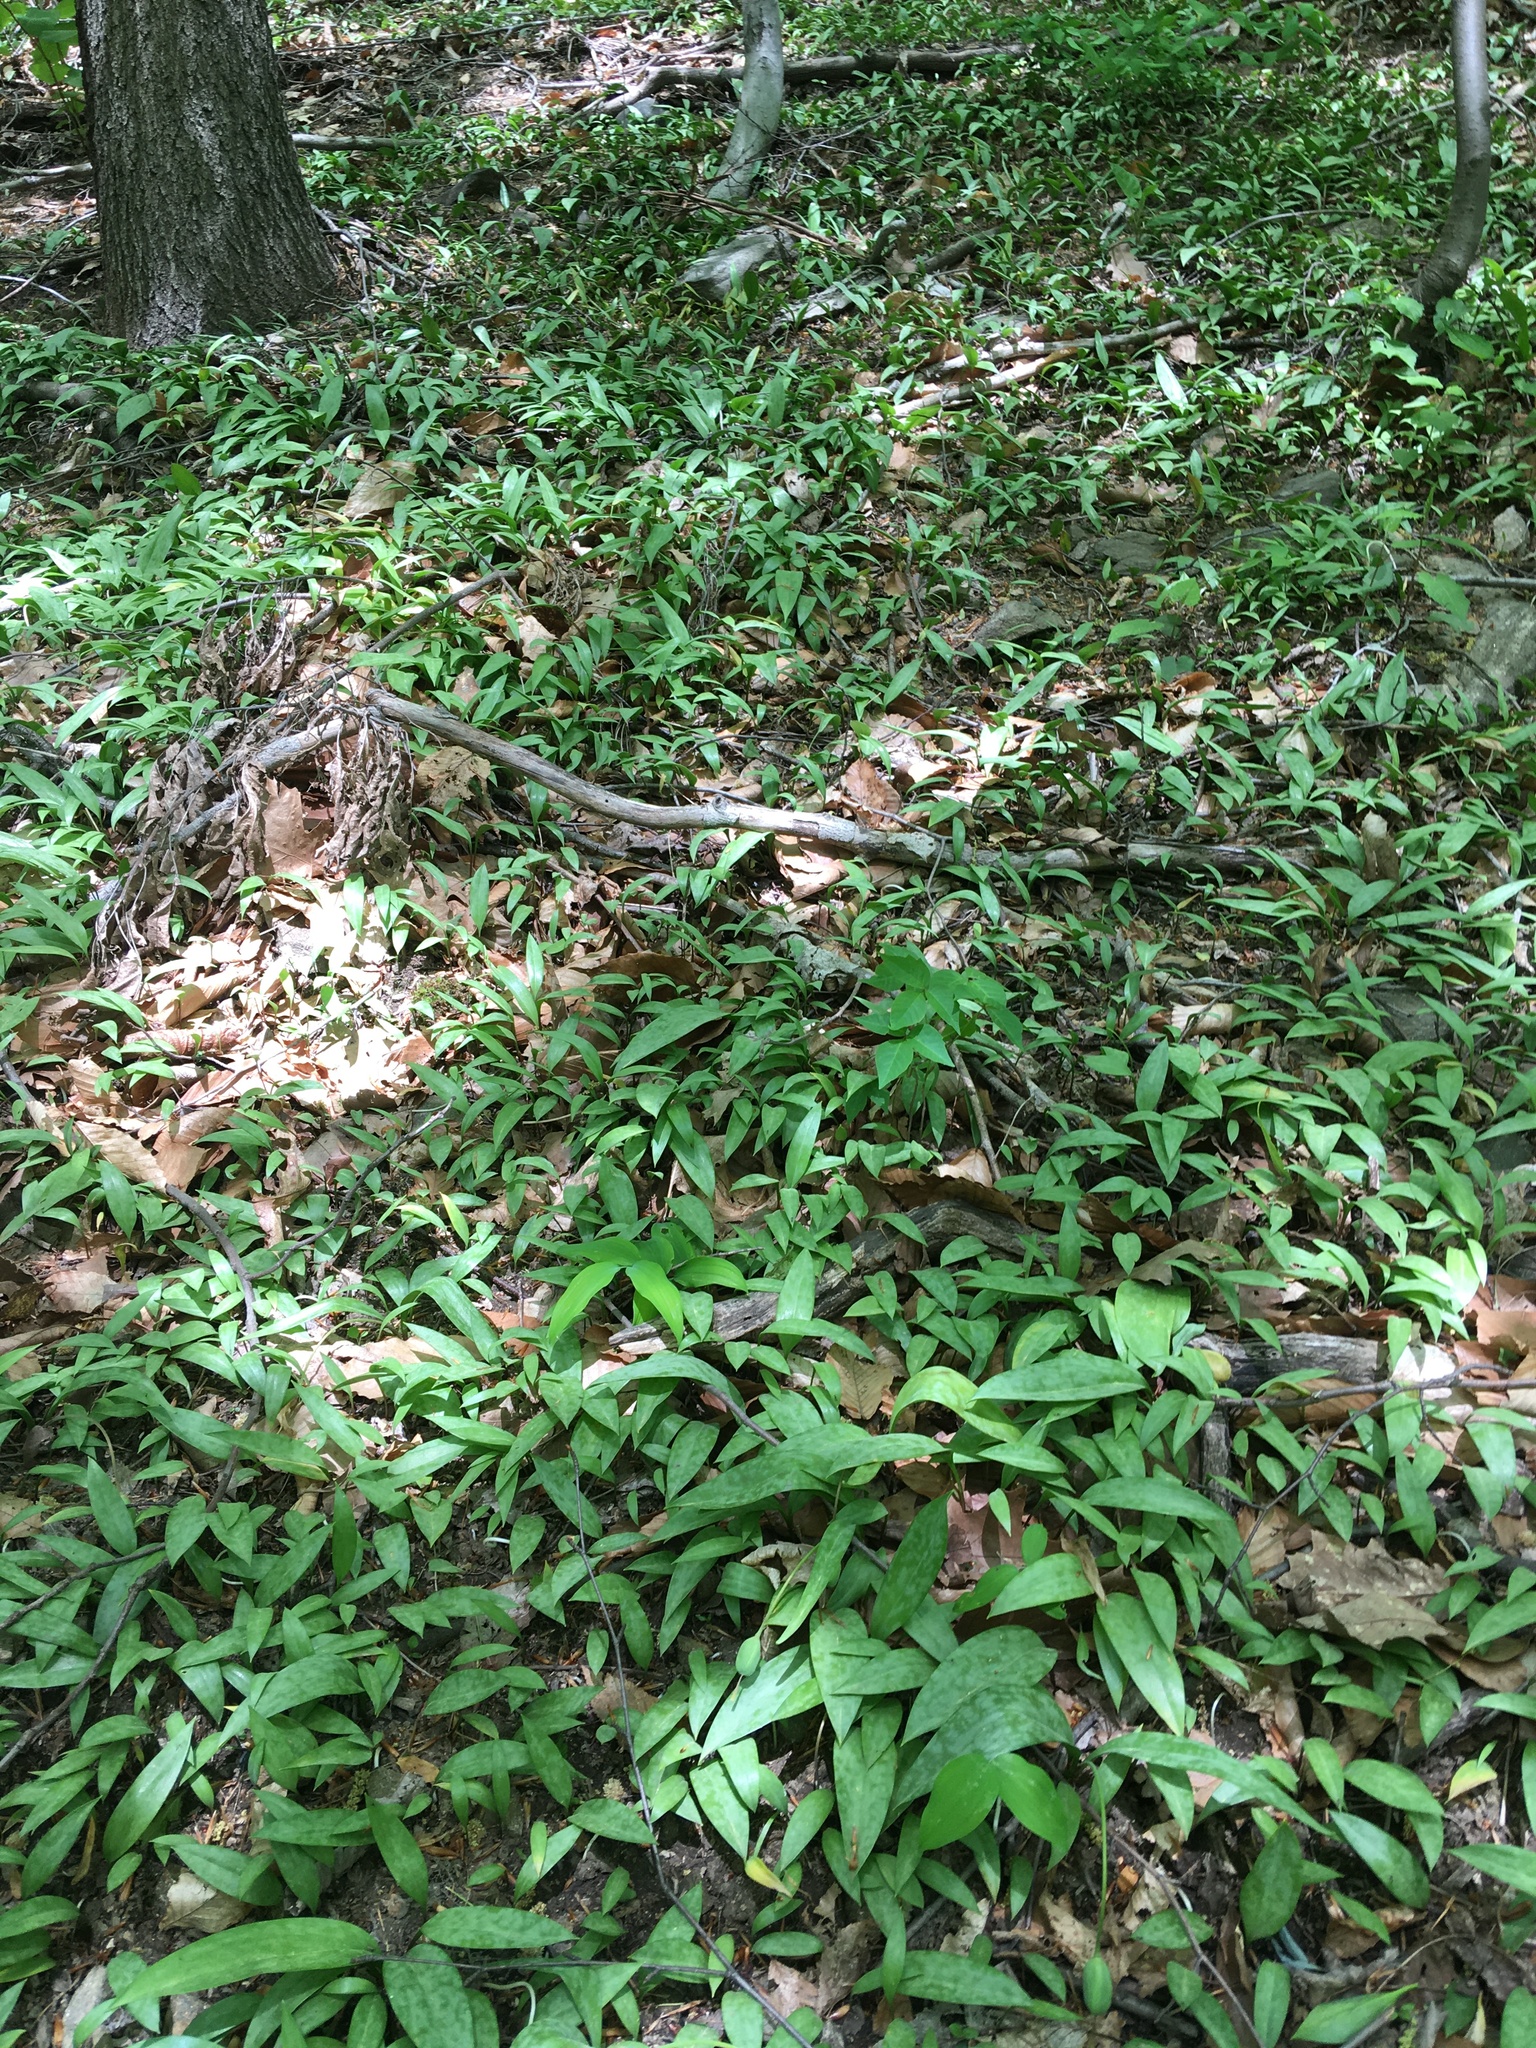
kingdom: Plantae
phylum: Tracheophyta
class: Liliopsida
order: Liliales
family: Liliaceae
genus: Erythronium
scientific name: Erythronium americanum
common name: Yellow adder's-tongue
